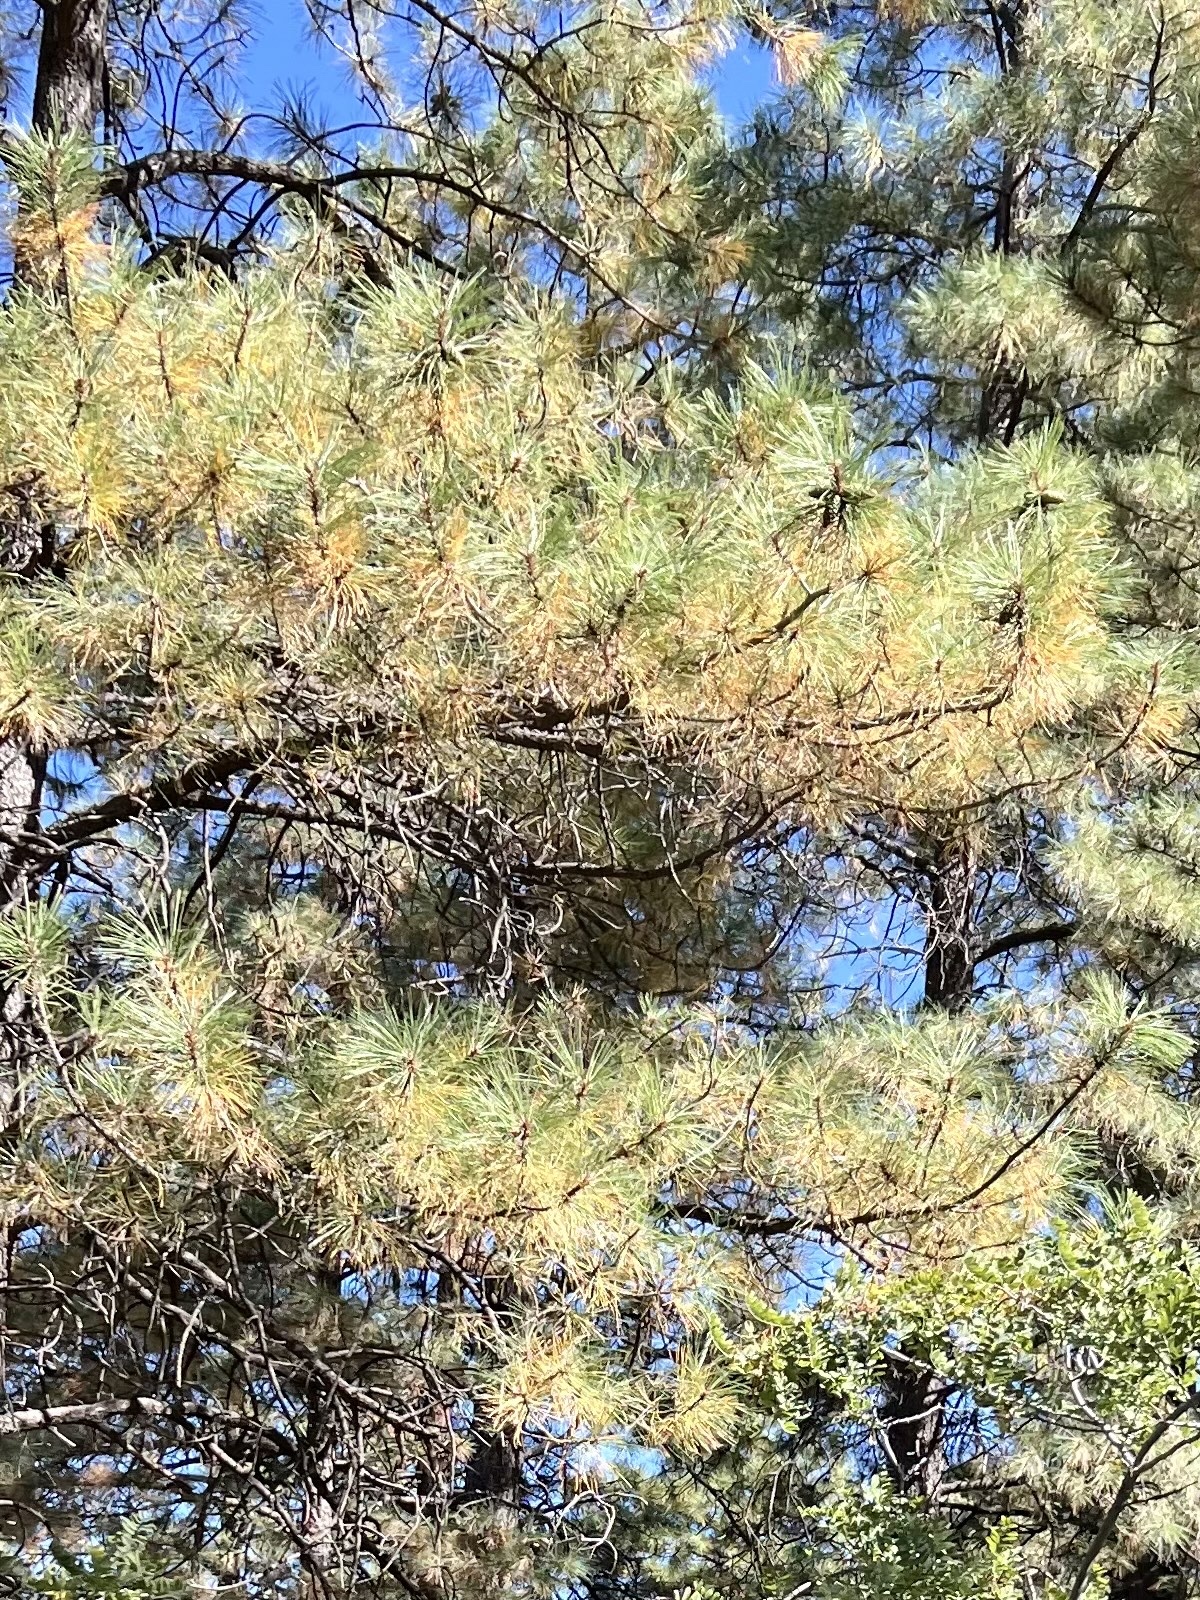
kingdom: Plantae
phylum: Tracheophyta
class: Pinopsida
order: Pinales
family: Pinaceae
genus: Pinus
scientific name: Pinus ponderosa
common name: Western yellow-pine
